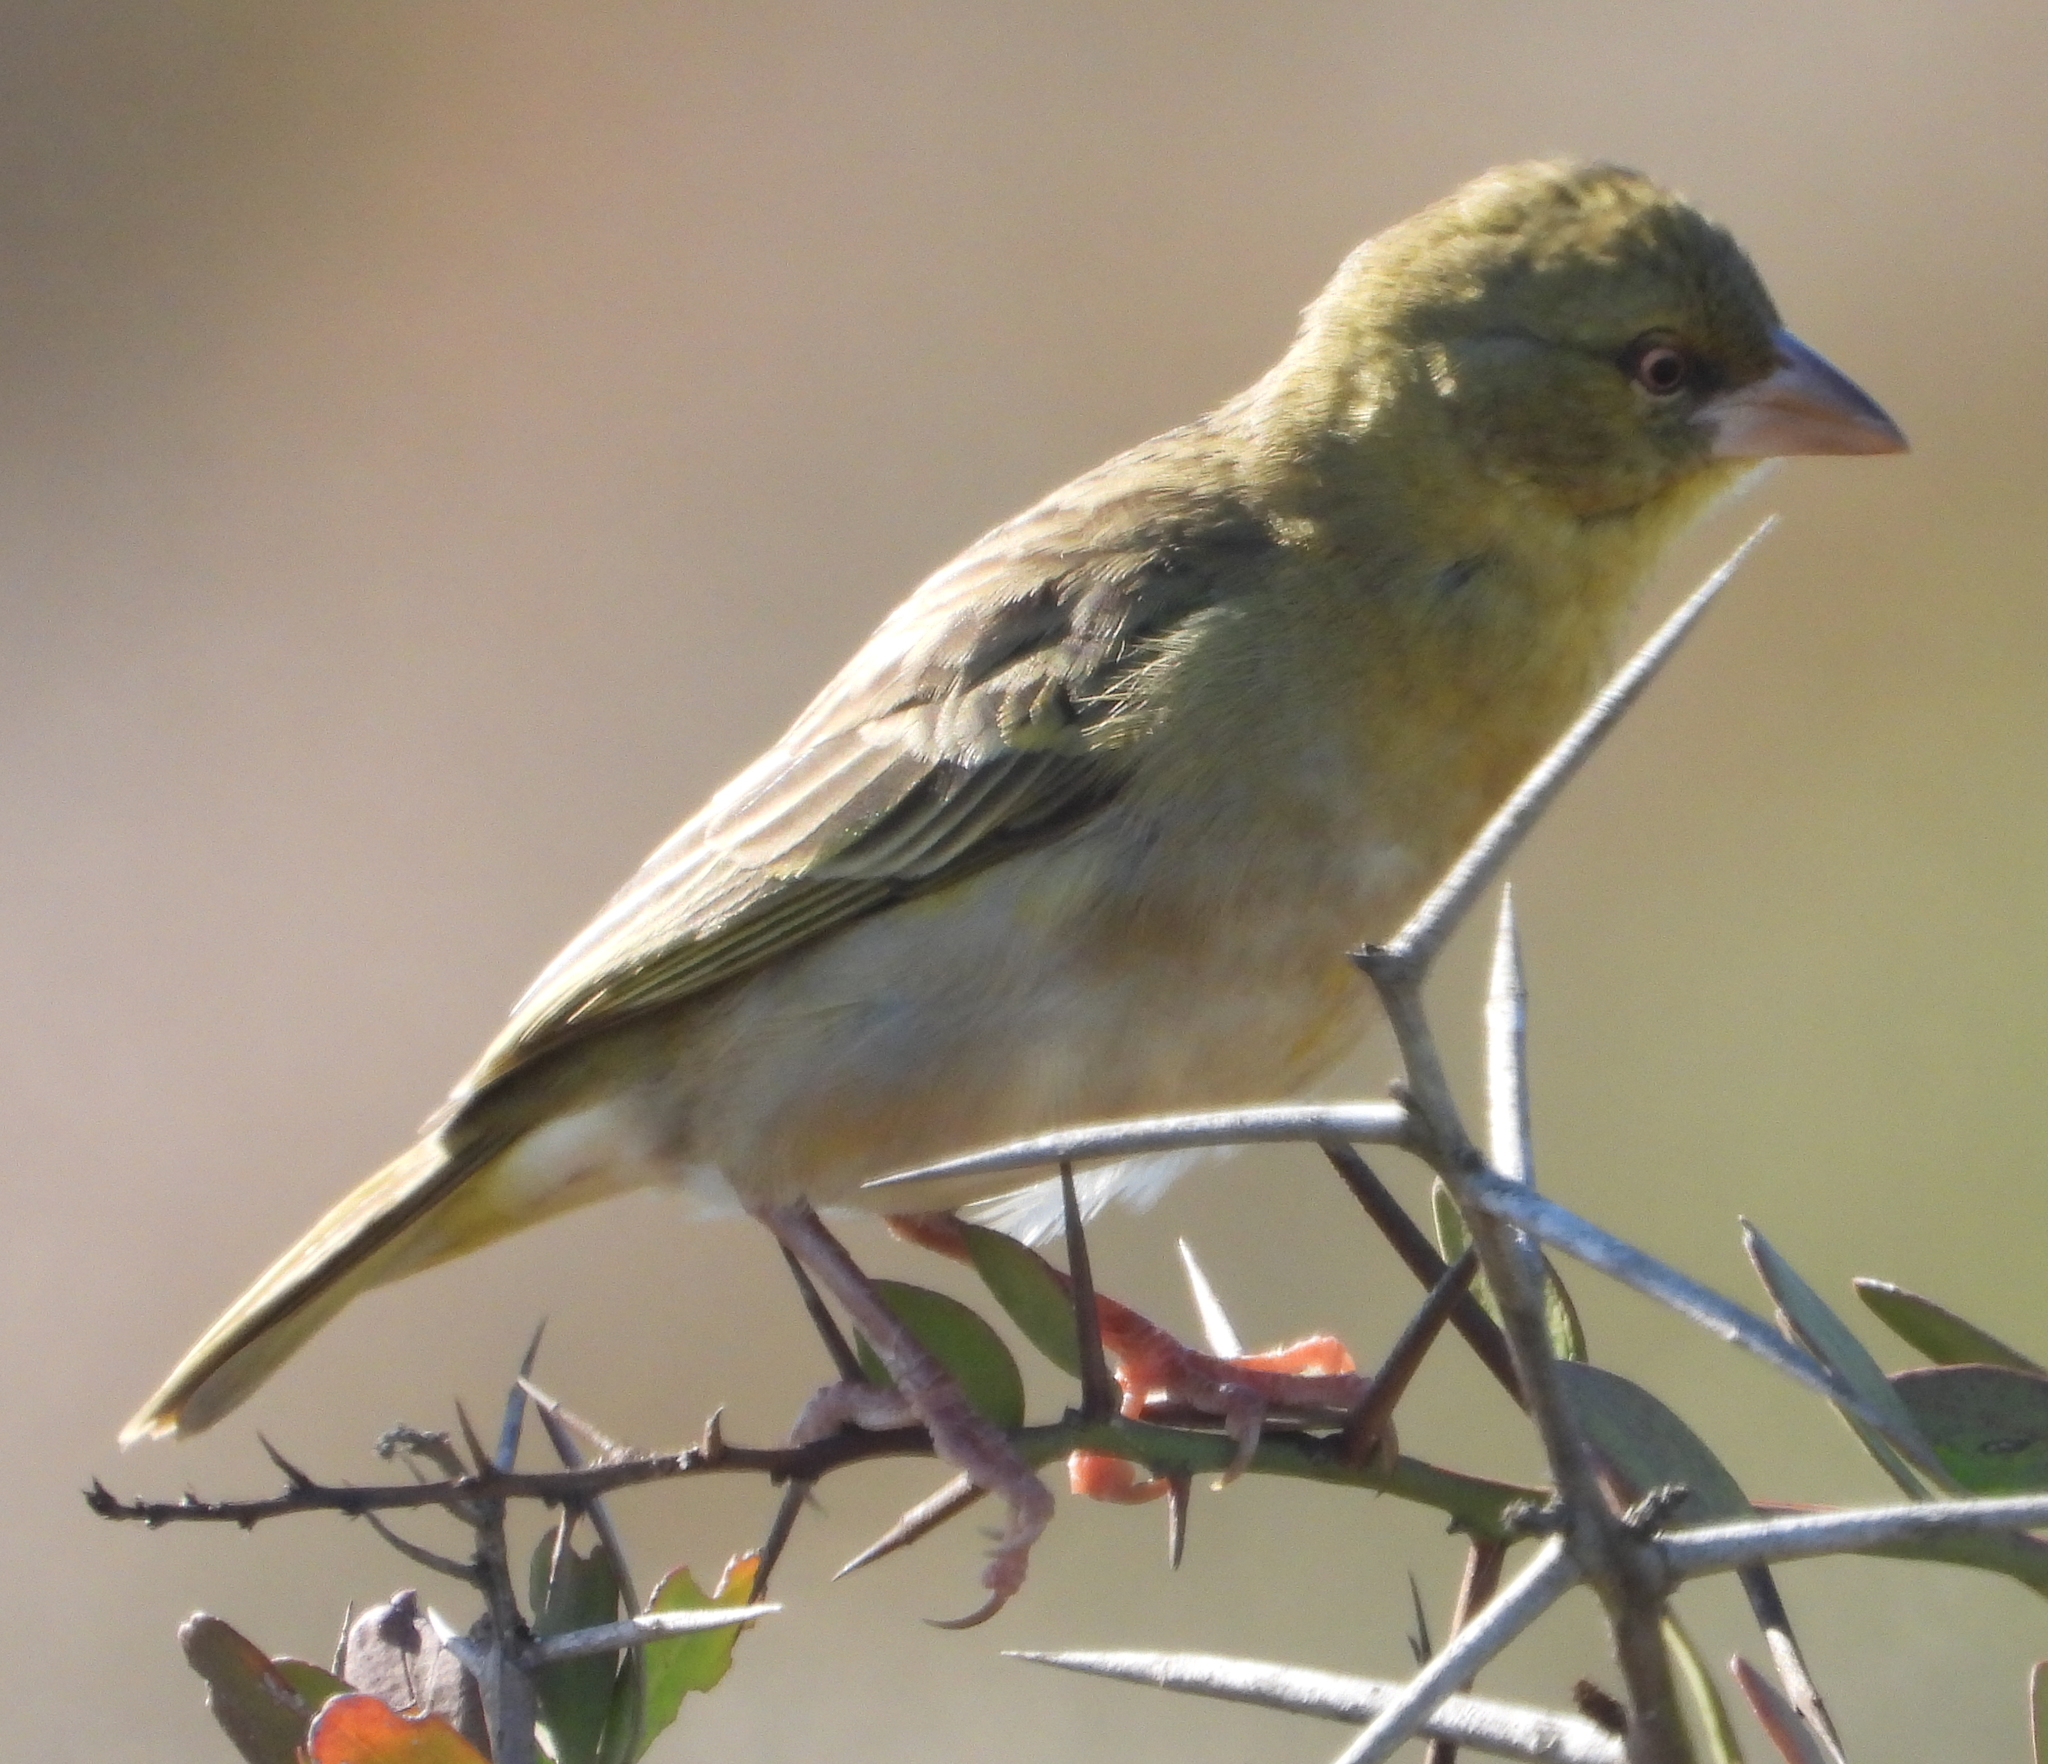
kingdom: Animalia
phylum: Chordata
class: Aves
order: Passeriformes
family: Ploceidae
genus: Ploceus
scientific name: Ploceus velatus
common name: Southern masked weaver
